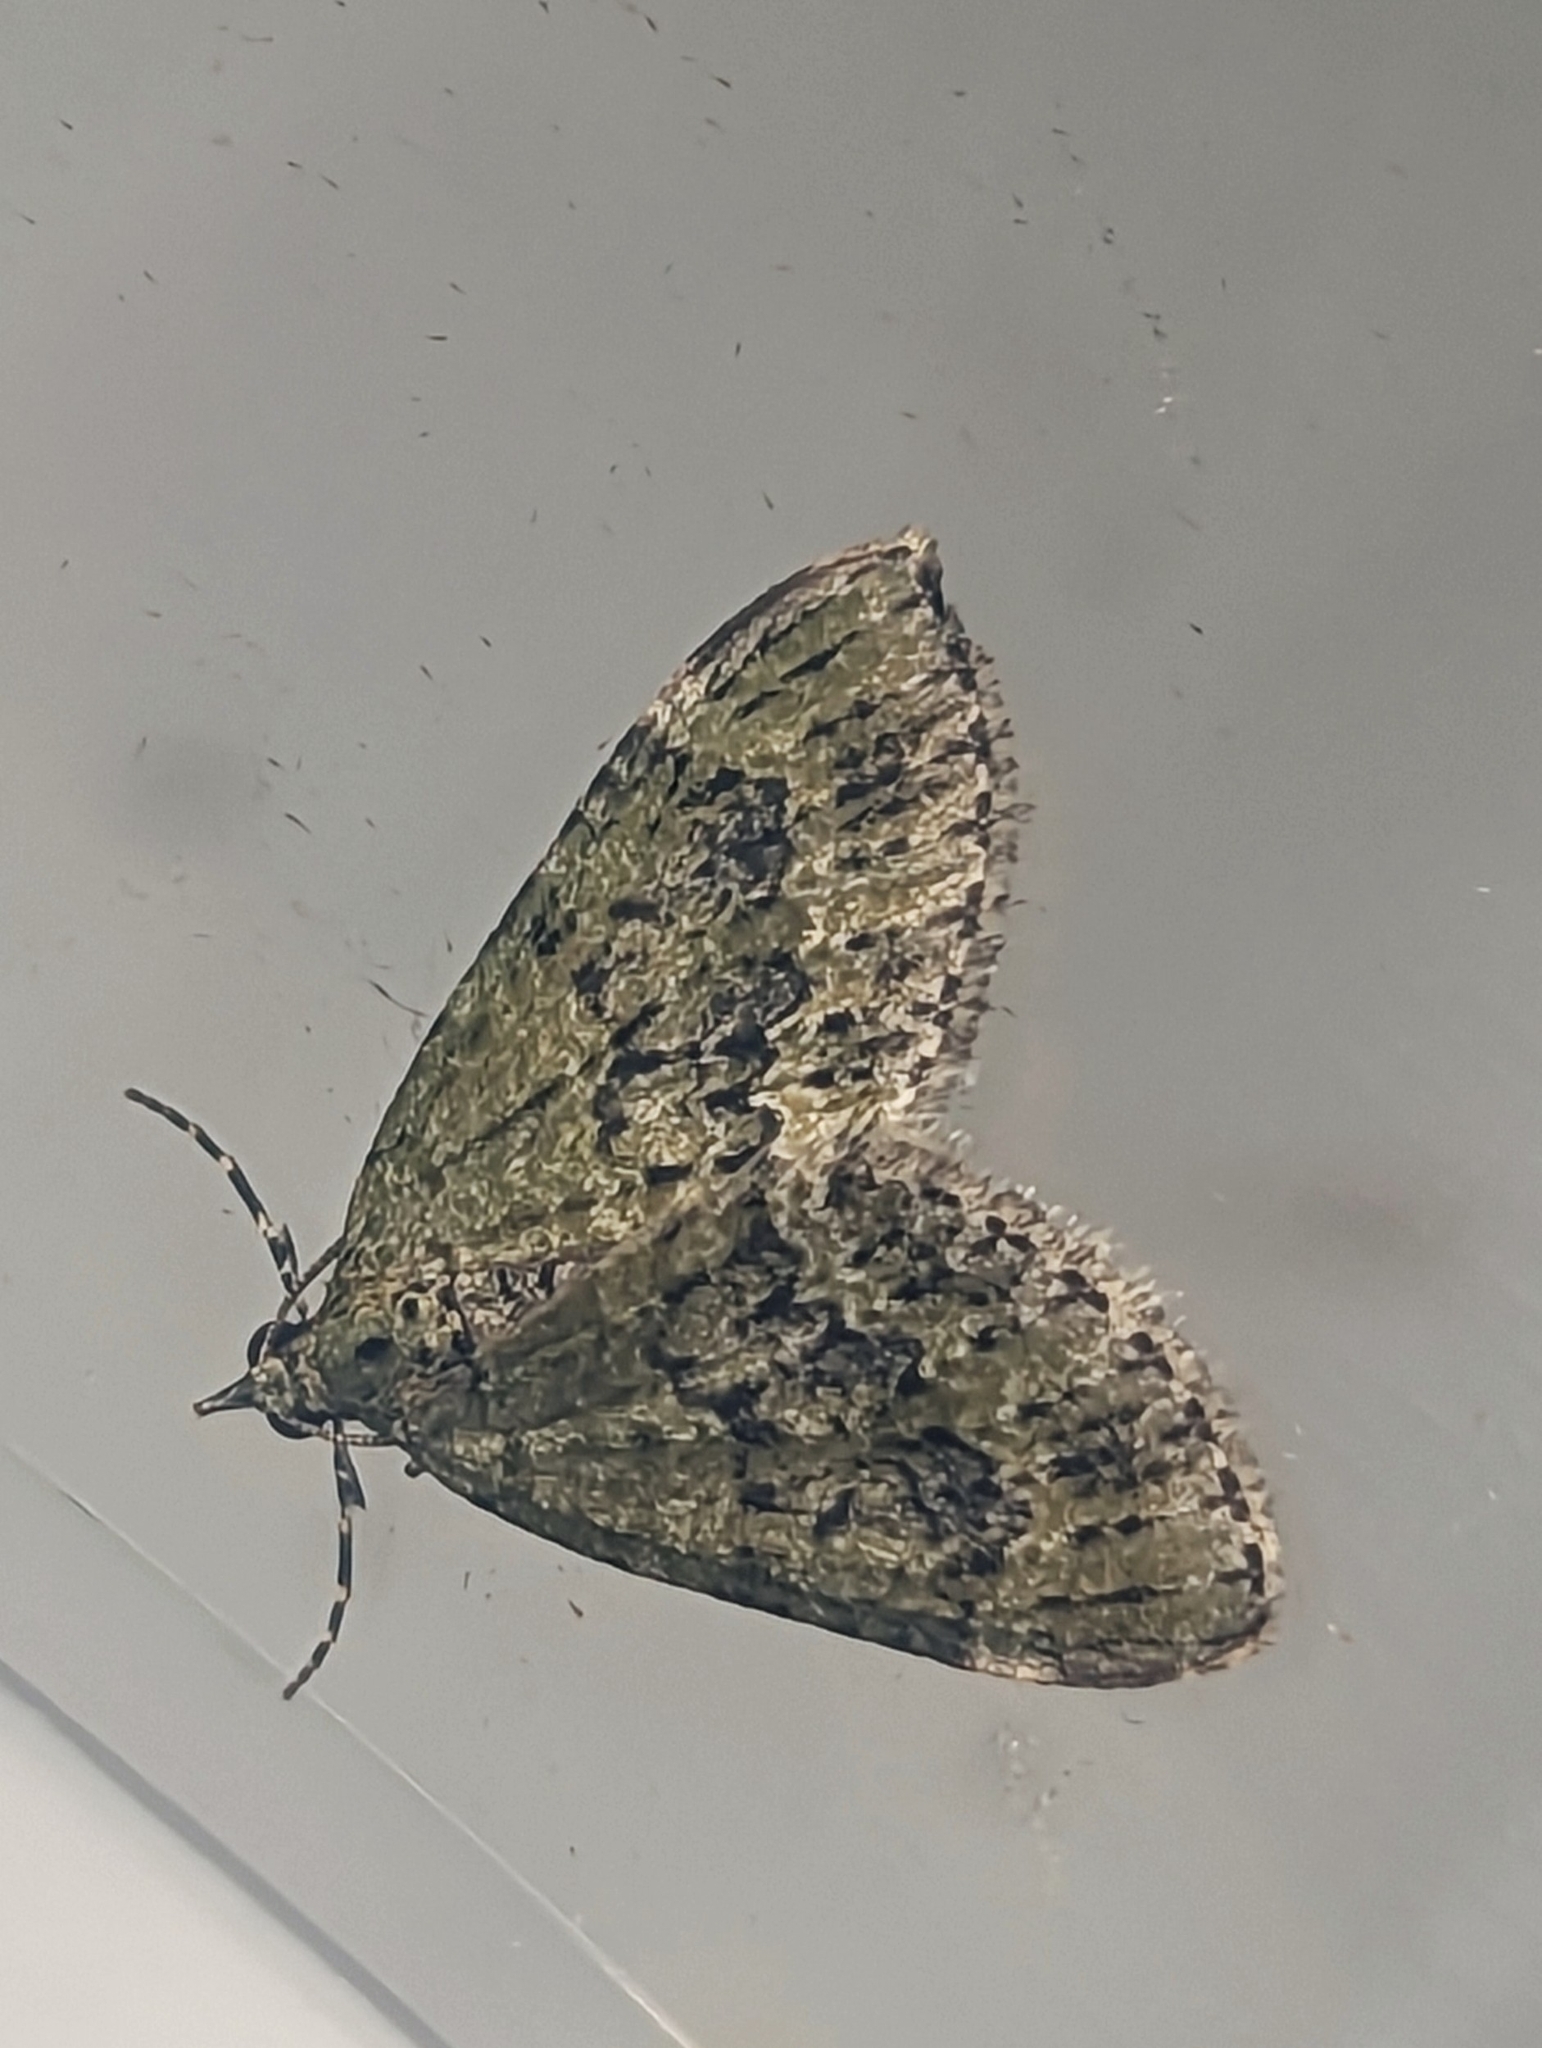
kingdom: Animalia
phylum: Arthropoda
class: Insecta
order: Lepidoptera
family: Geometridae
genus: Acasis
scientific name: Acasis viretata
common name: Yellow-barred brindle
